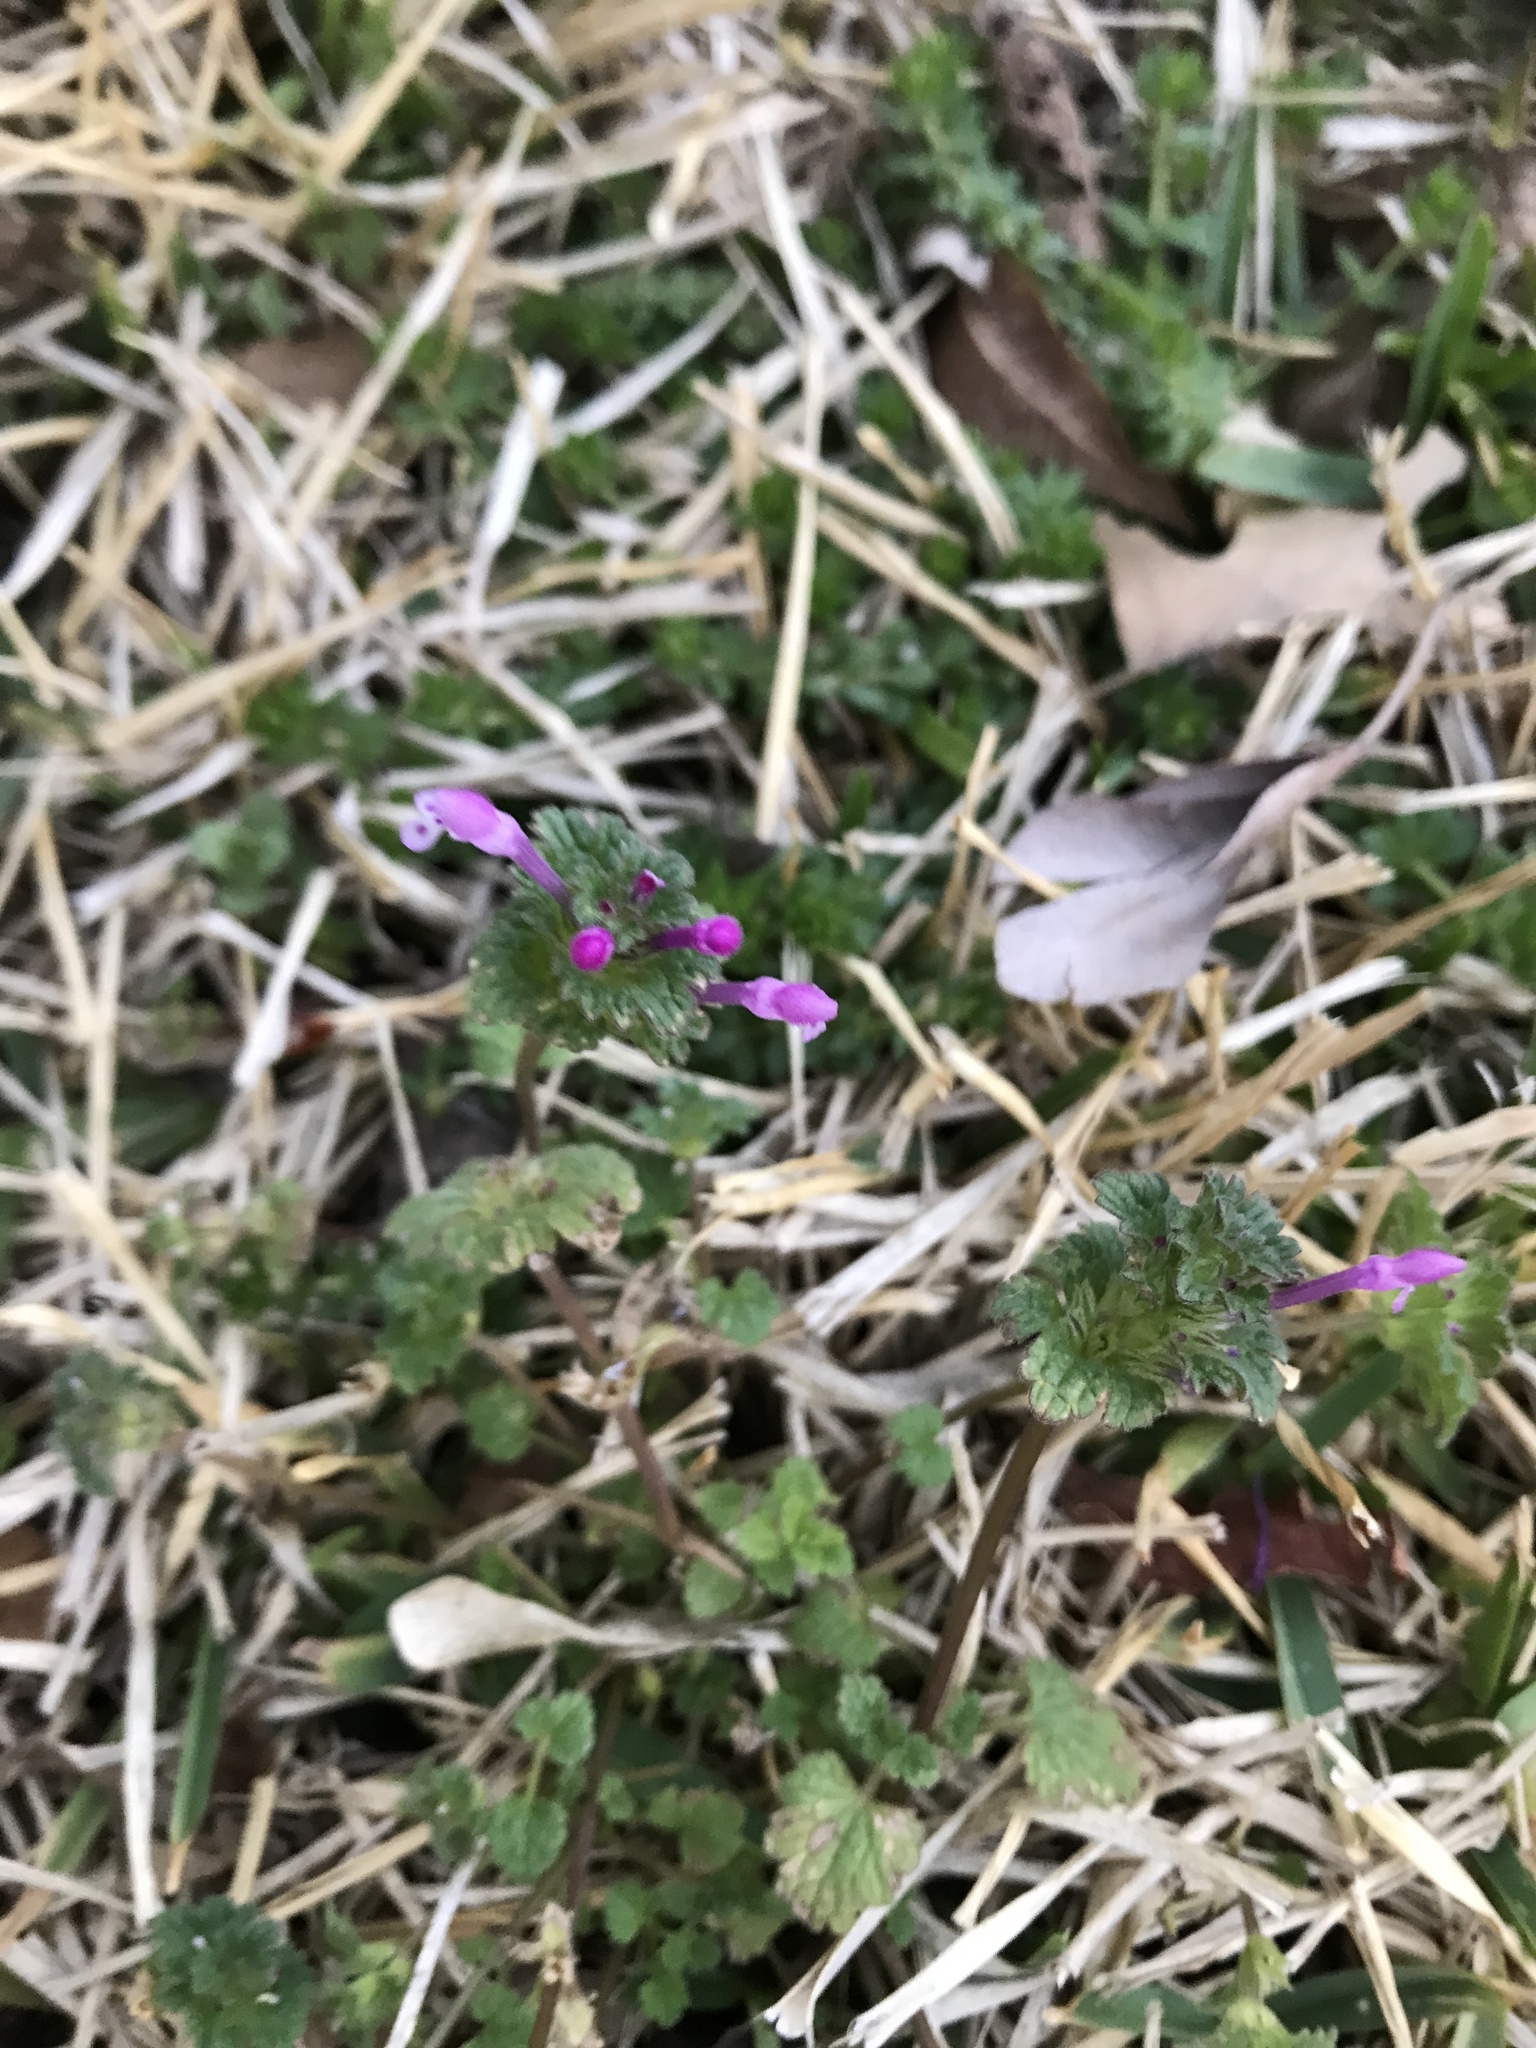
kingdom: Plantae
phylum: Tracheophyta
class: Magnoliopsida
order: Lamiales
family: Lamiaceae
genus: Lamium
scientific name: Lamium amplexicaule
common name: Henbit dead-nettle
